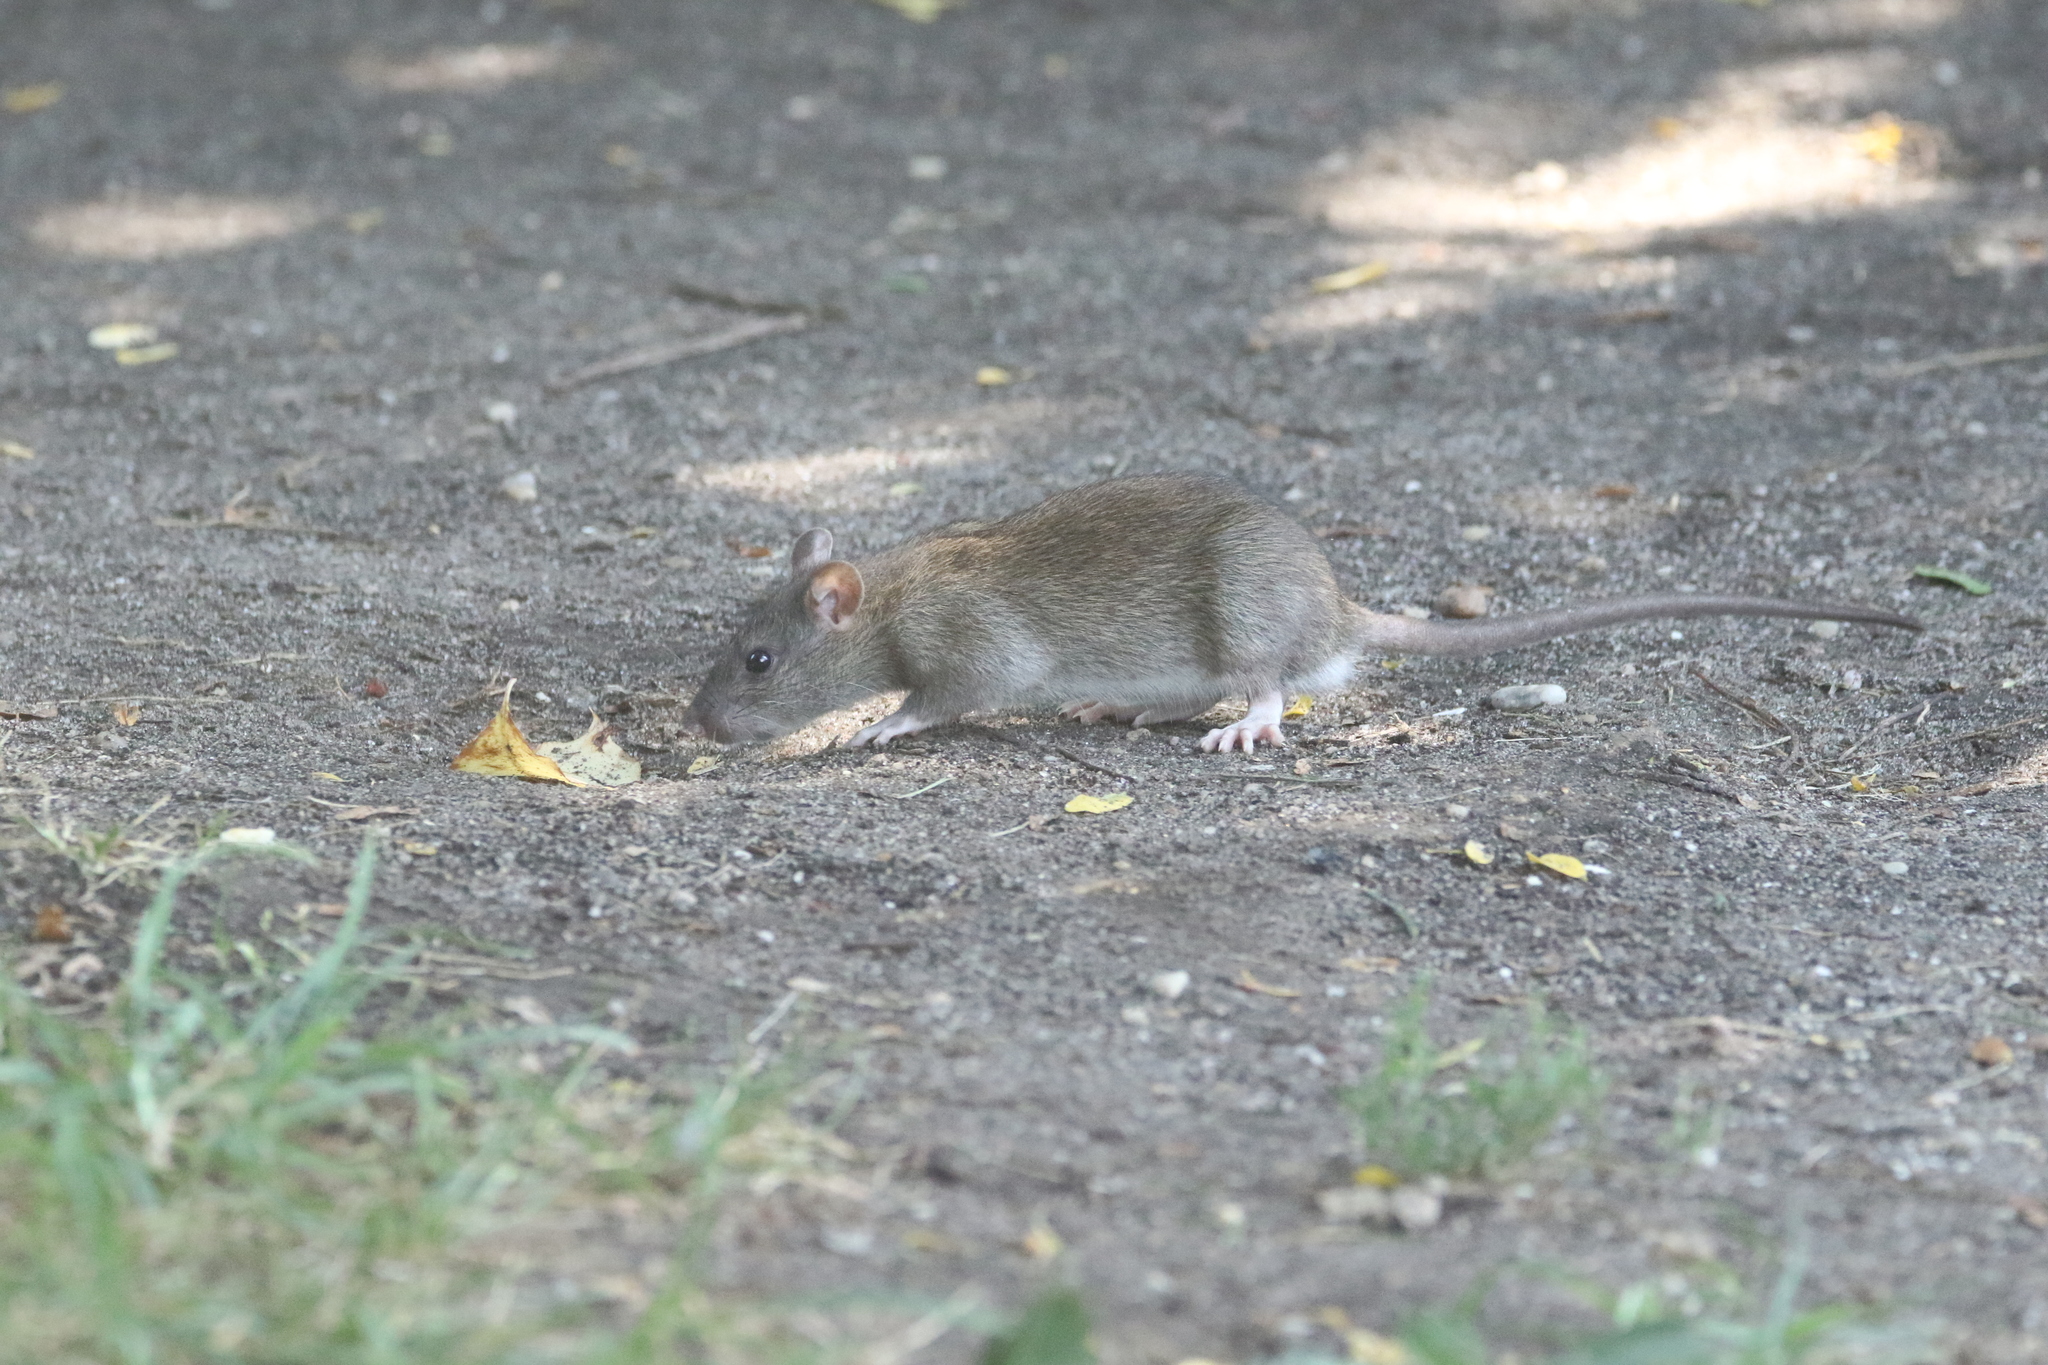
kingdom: Animalia
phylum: Chordata
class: Mammalia
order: Rodentia
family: Muridae
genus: Rattus
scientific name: Rattus norvegicus
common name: Brown rat
